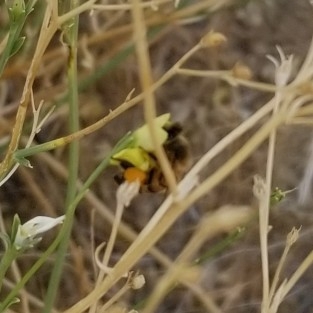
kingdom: Animalia
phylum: Arthropoda
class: Insecta
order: Hymenoptera
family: Apidae
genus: Apis
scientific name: Apis mellifera
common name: Honey bee
